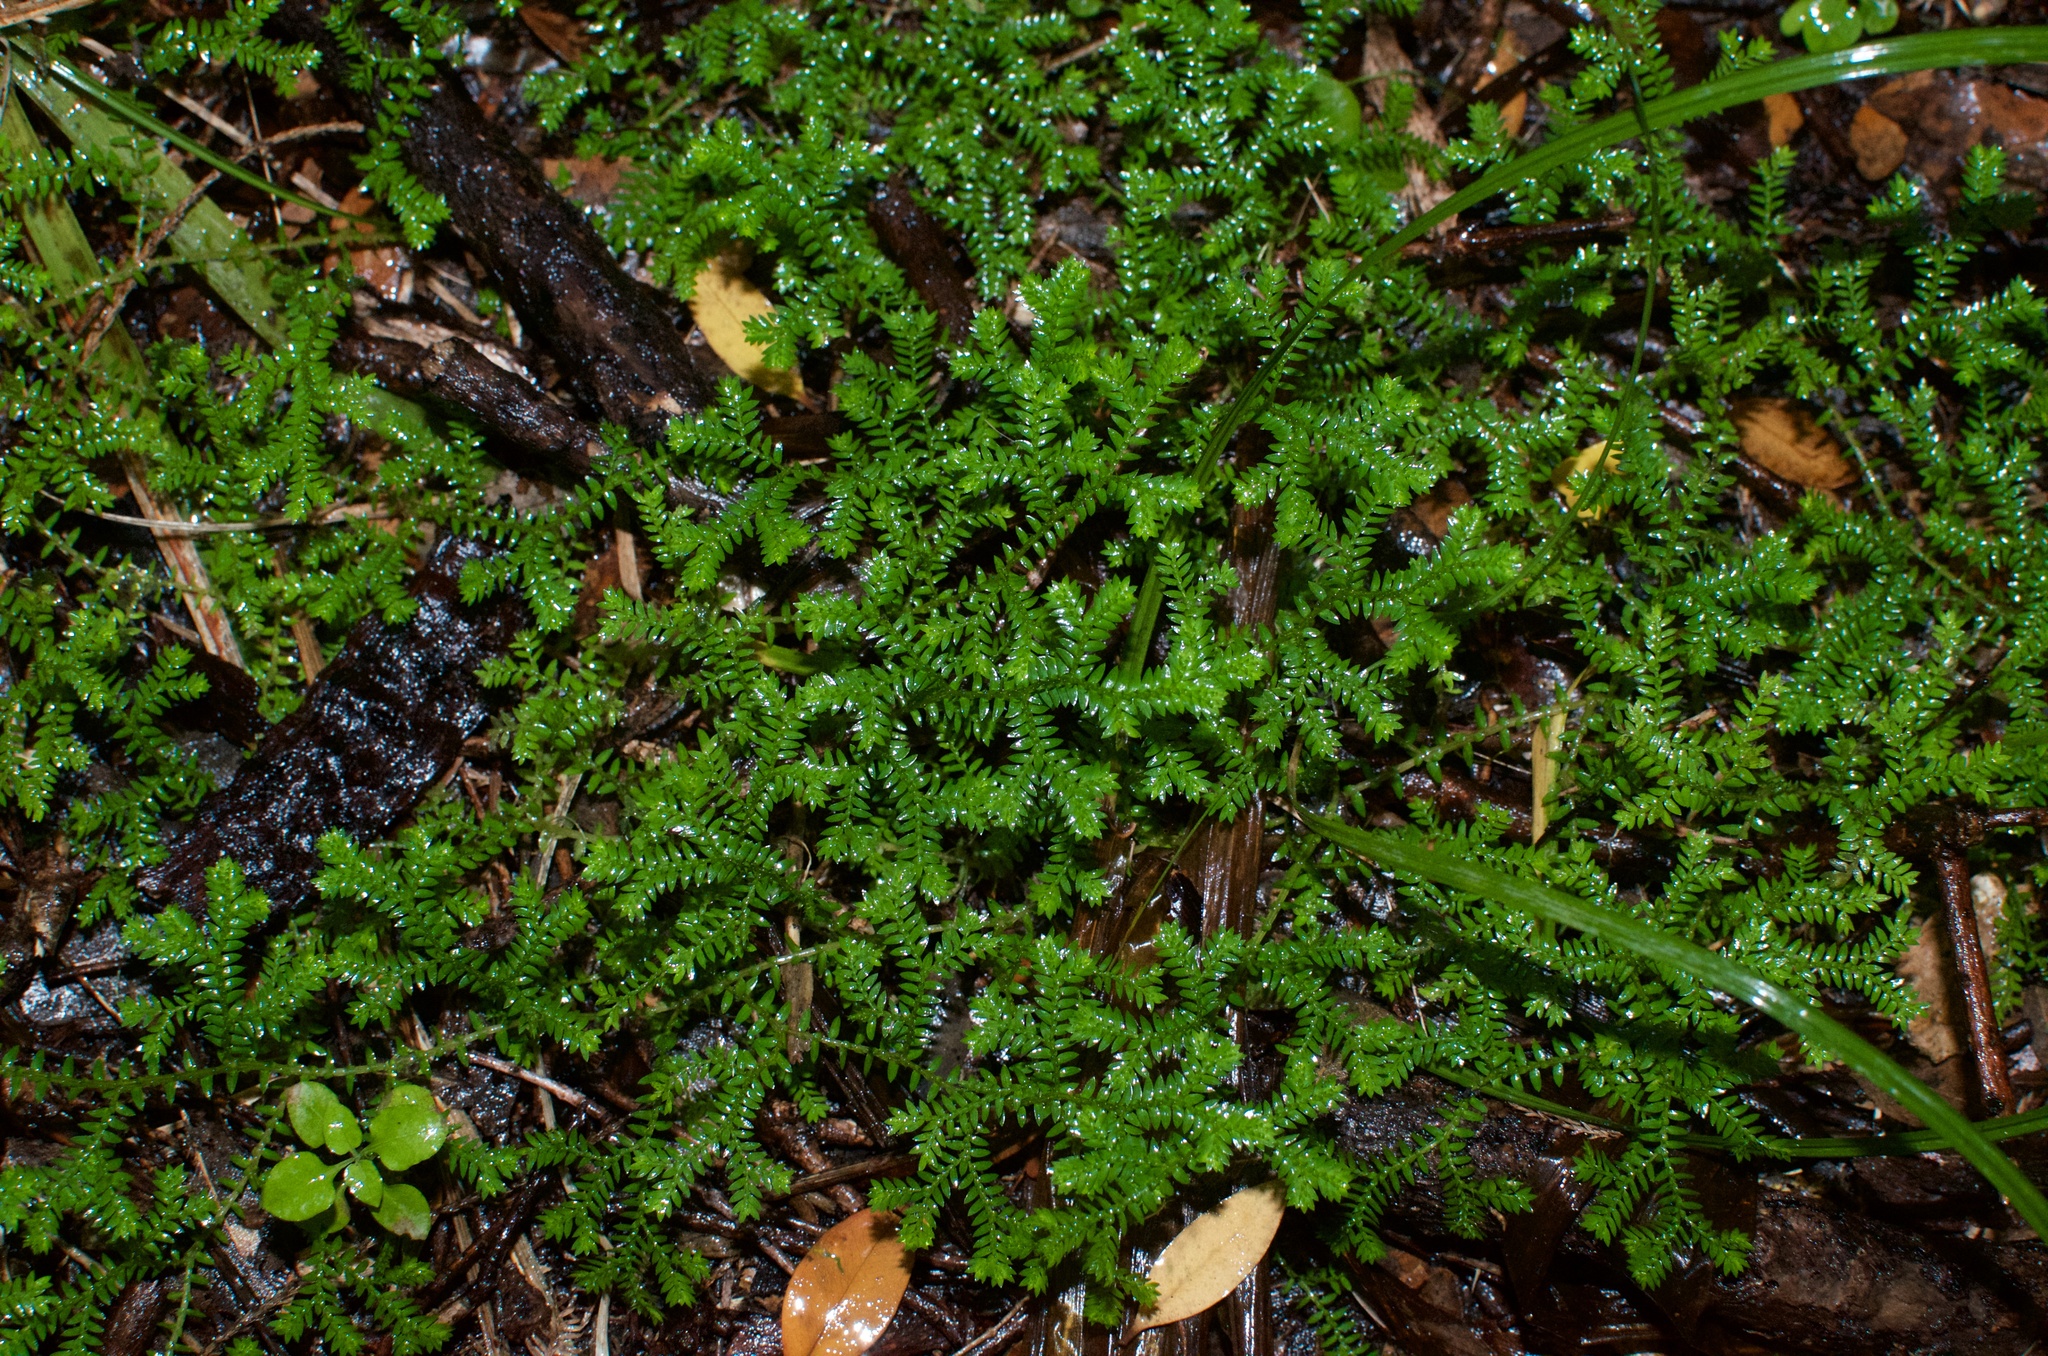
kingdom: Plantae
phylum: Tracheophyta
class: Lycopodiopsida
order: Selaginellales
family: Selaginellaceae
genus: Selaginella
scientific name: Selaginella kraussiana
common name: Krauss' spikemoss
